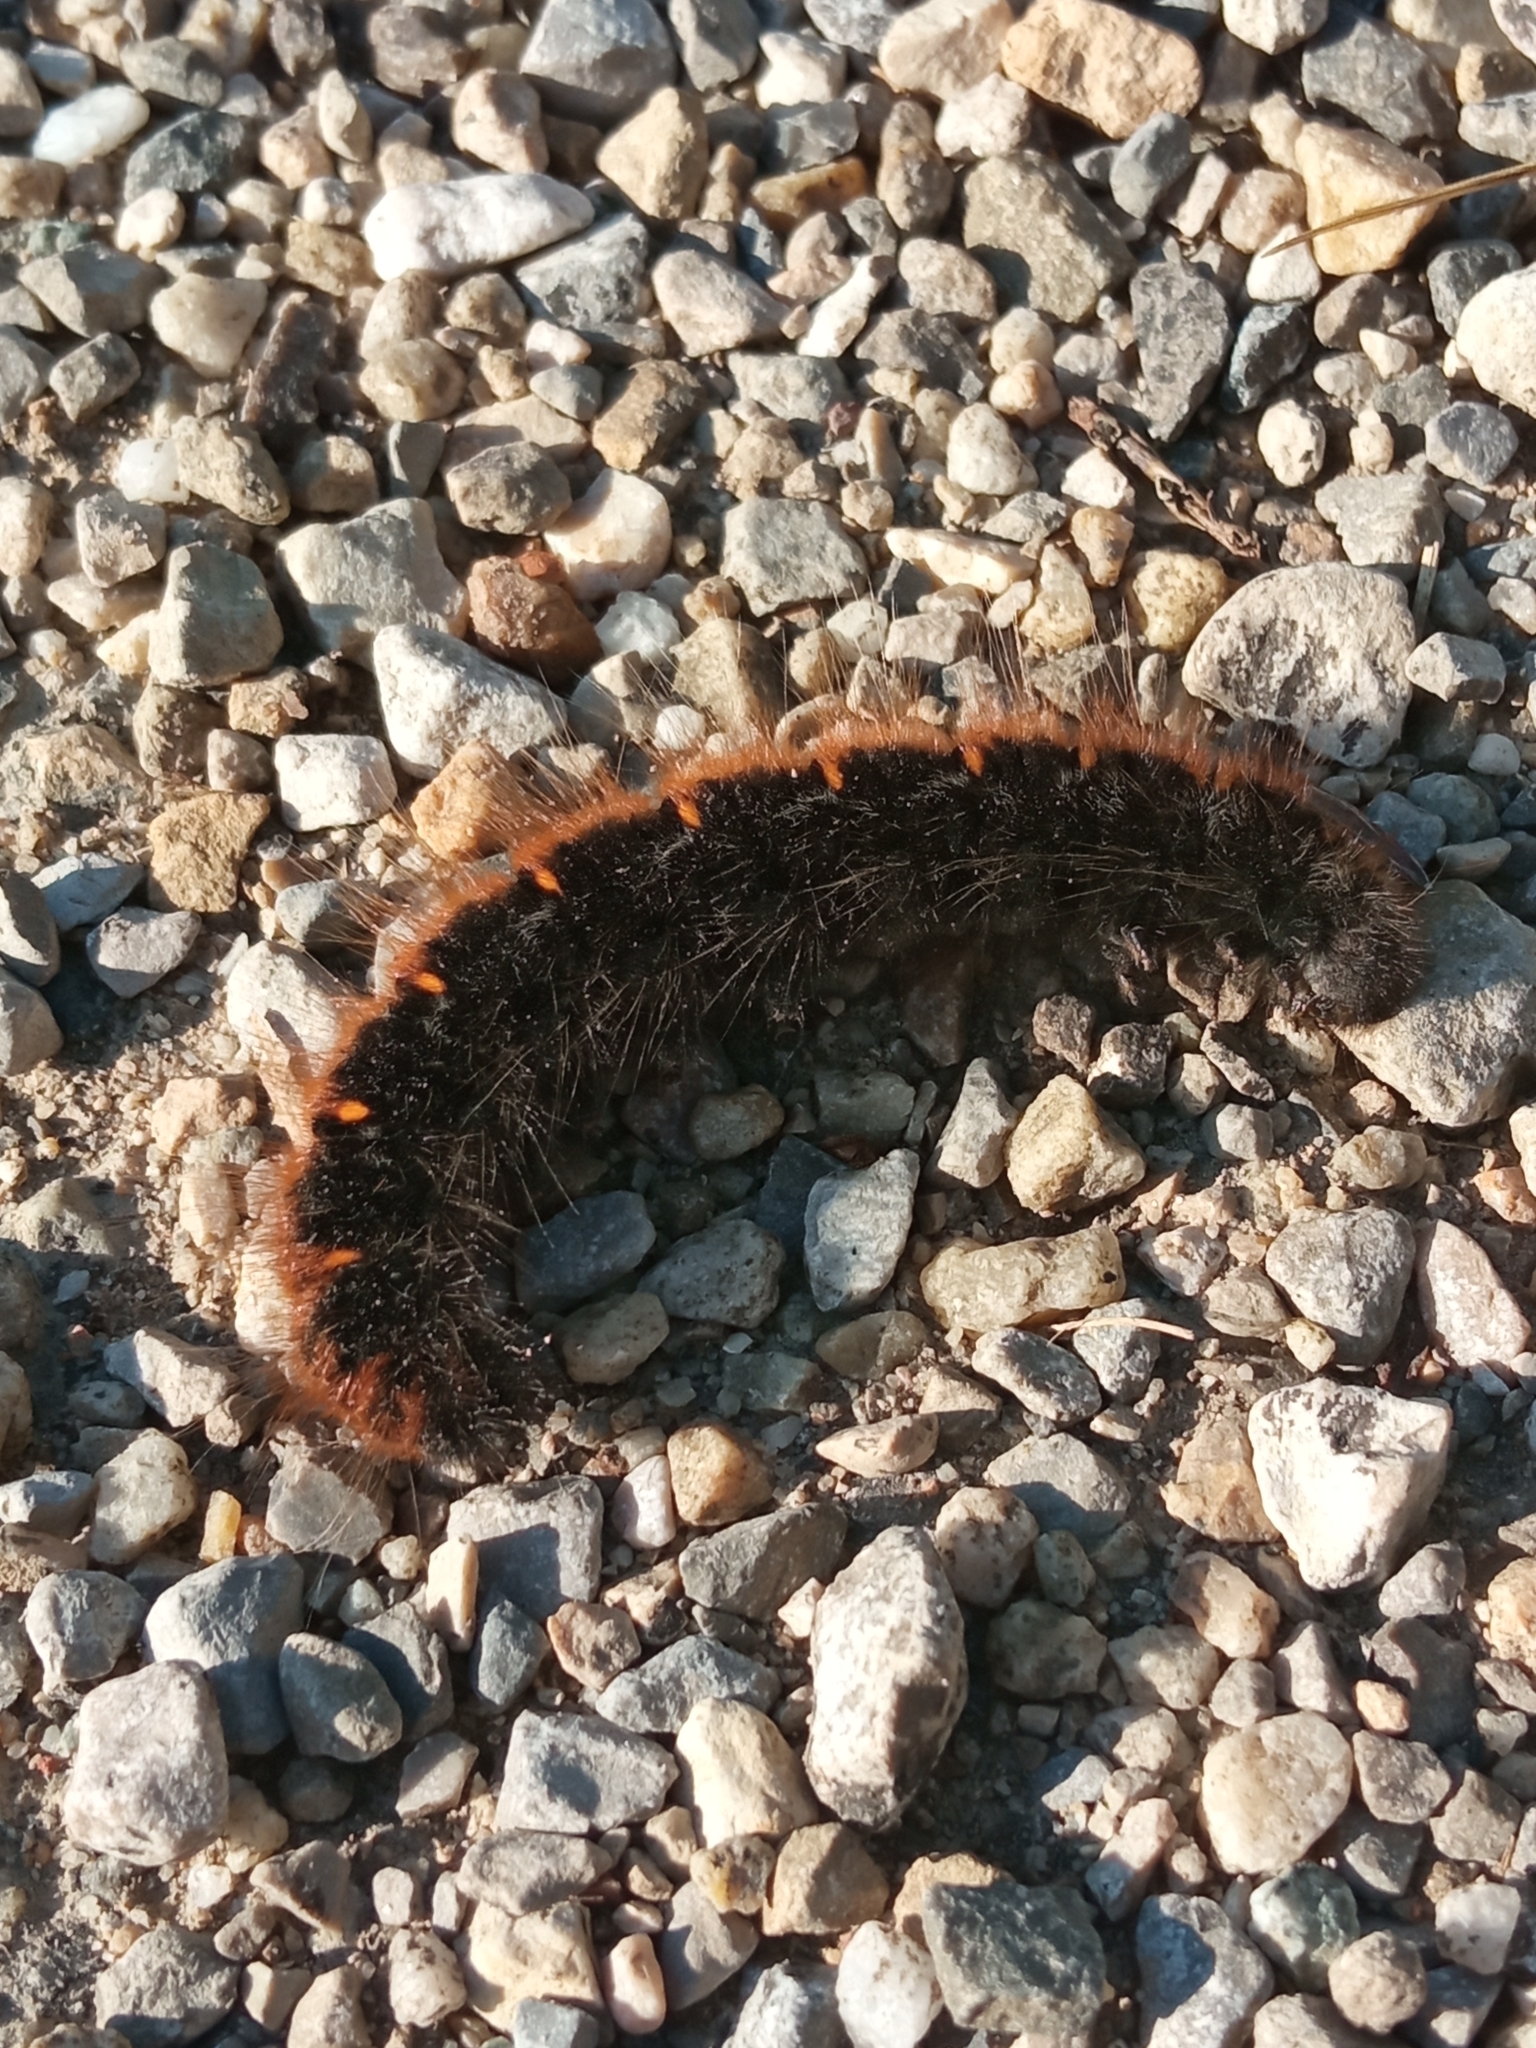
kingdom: Animalia
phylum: Arthropoda
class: Insecta
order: Lepidoptera
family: Lasiocampidae
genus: Macrothylacia
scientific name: Macrothylacia rubi
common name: Fox moth
